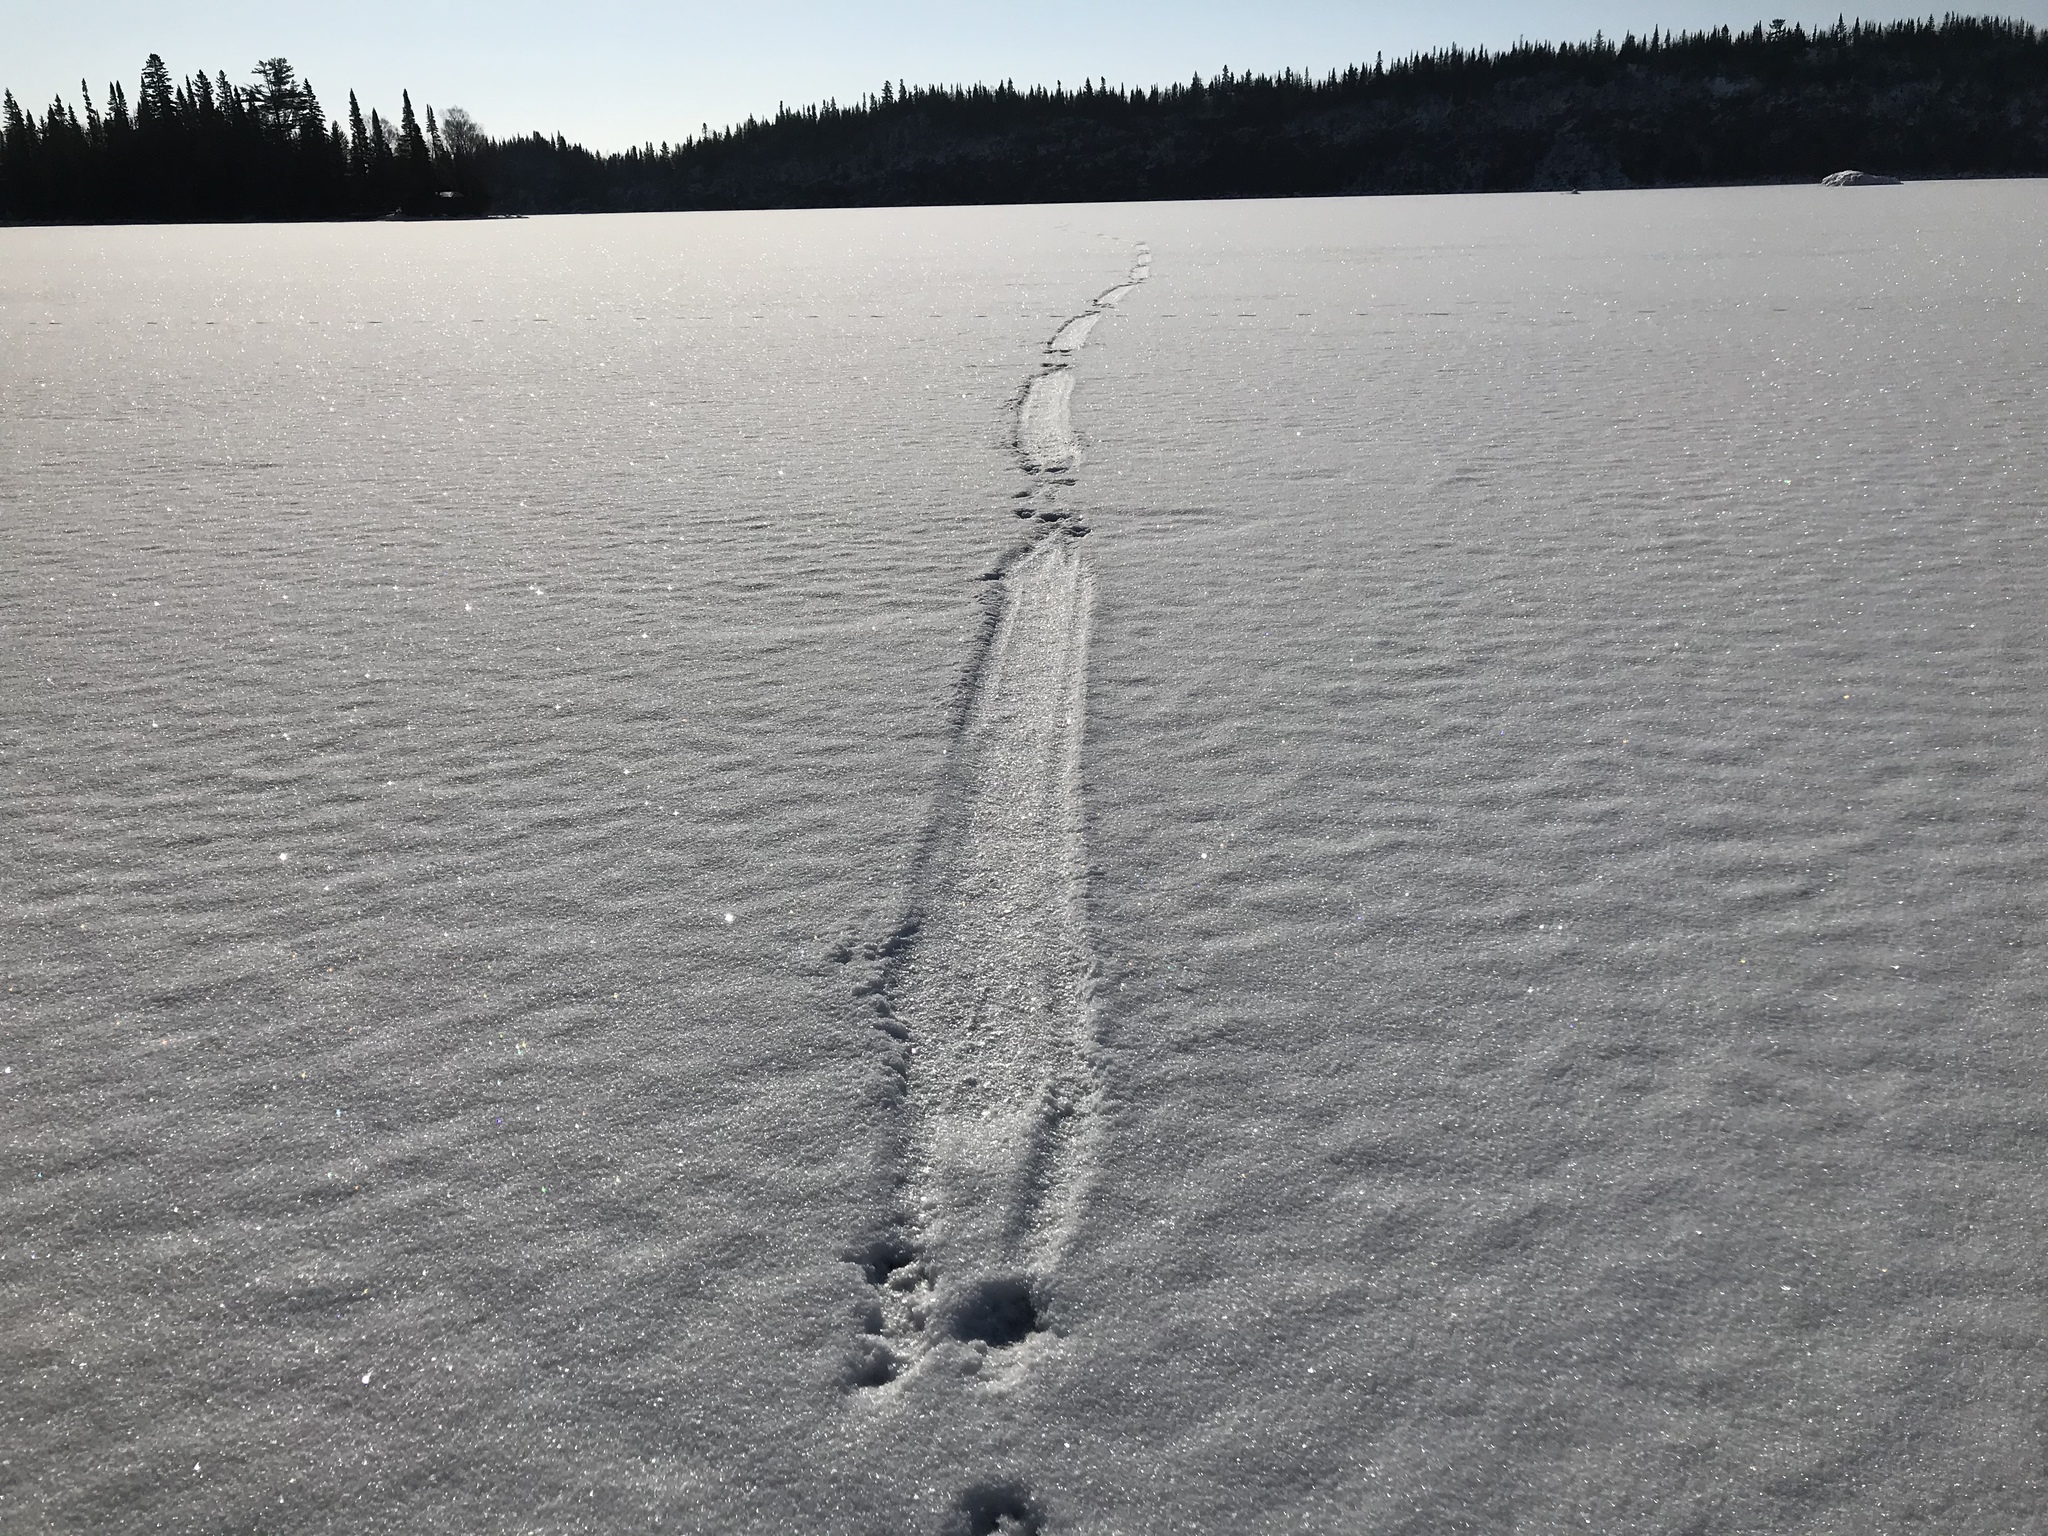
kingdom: Animalia
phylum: Chordata
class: Mammalia
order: Carnivora
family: Mustelidae
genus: Lontra
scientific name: Lontra canadensis
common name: North american river otter
